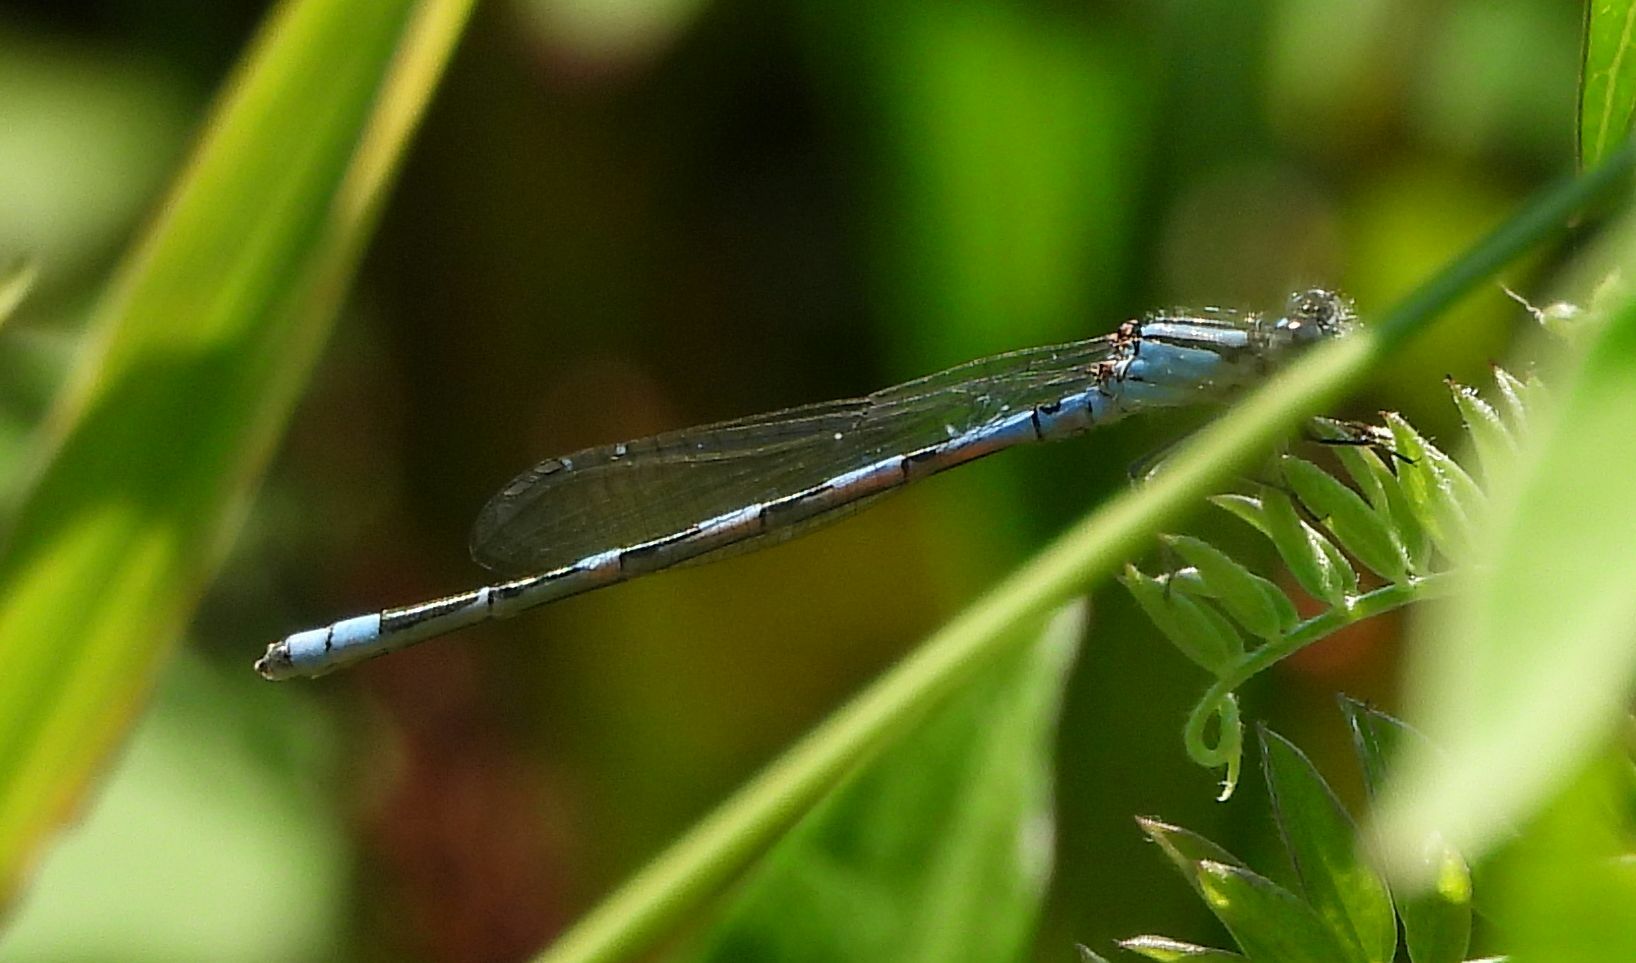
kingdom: Animalia
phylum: Arthropoda
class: Insecta
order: Odonata
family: Coenagrionidae
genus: Enallagma
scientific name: Enallagma carunculatum
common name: Tule bluet
